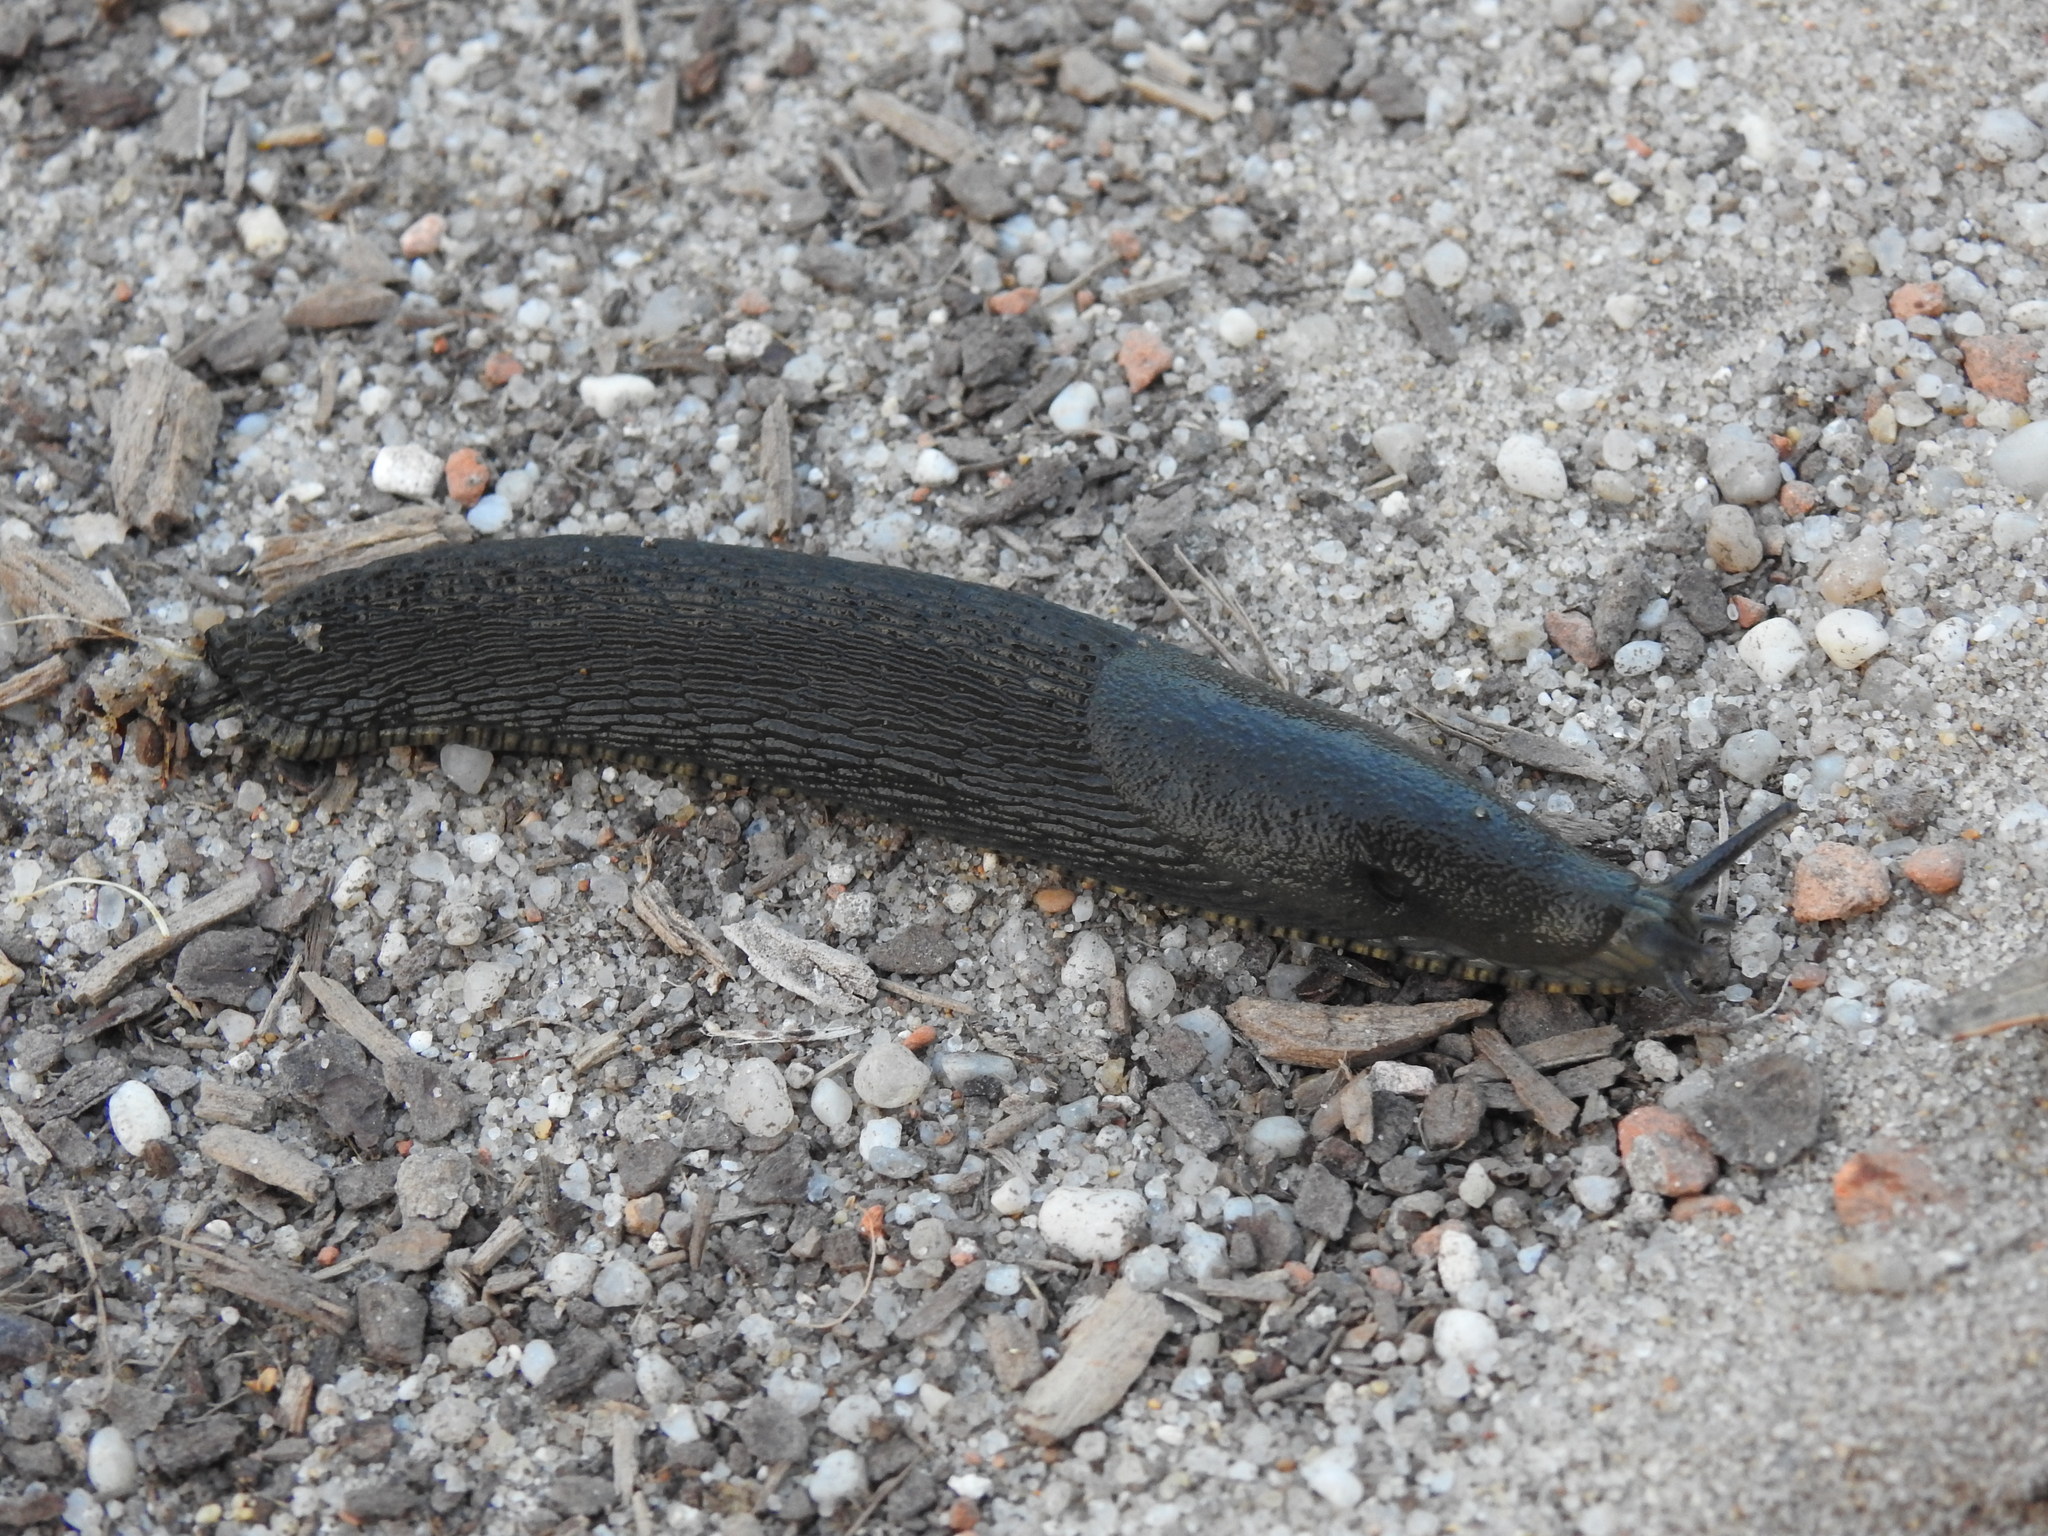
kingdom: Animalia
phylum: Mollusca
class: Gastropoda
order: Stylommatophora
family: Arionidae
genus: Arion
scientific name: Arion ater
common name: Black arion
